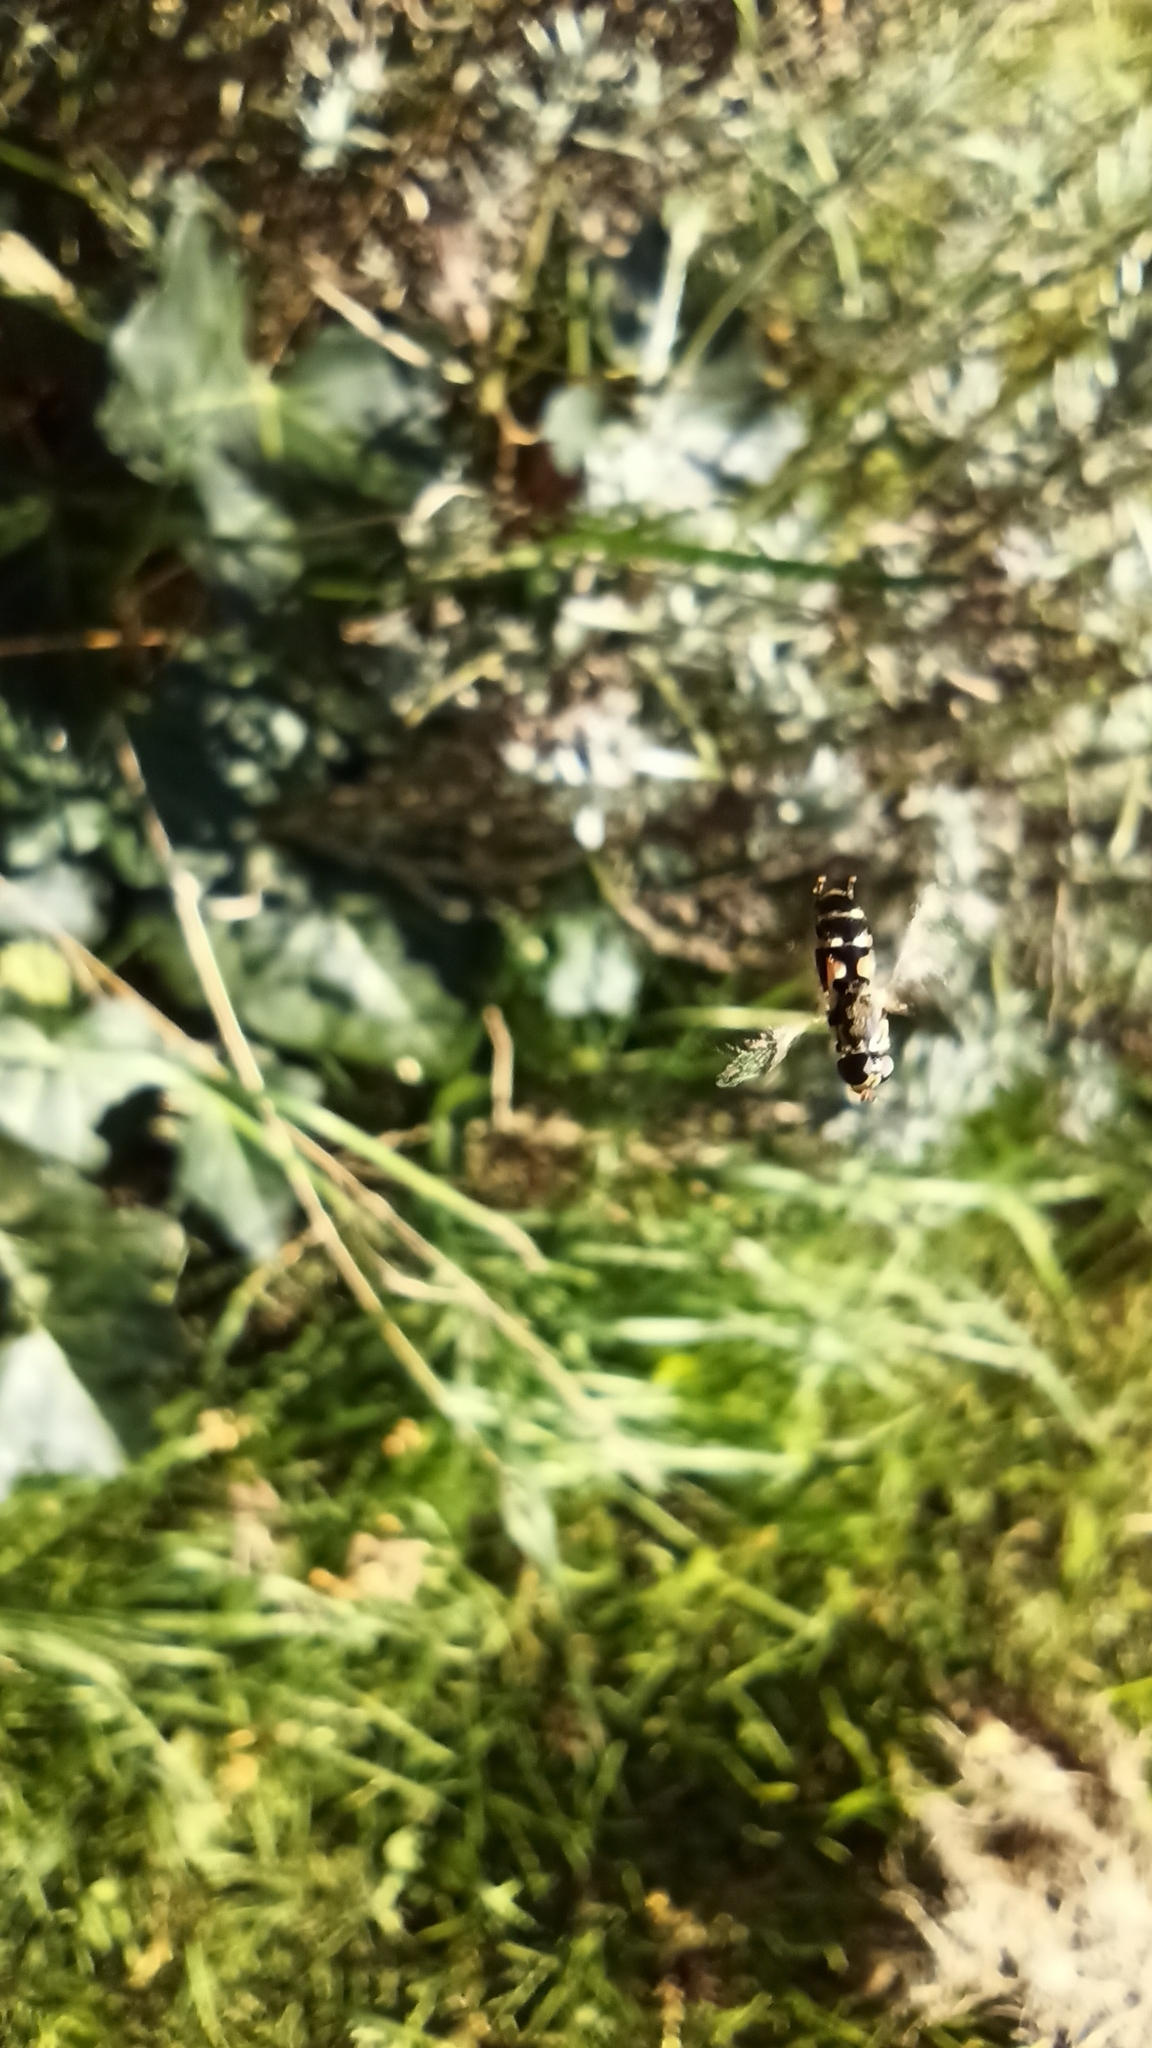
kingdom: Animalia
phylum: Arthropoda
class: Insecta
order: Diptera
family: Syrphidae
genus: Syritta
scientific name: Syritta pipiens
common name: Hover fly
